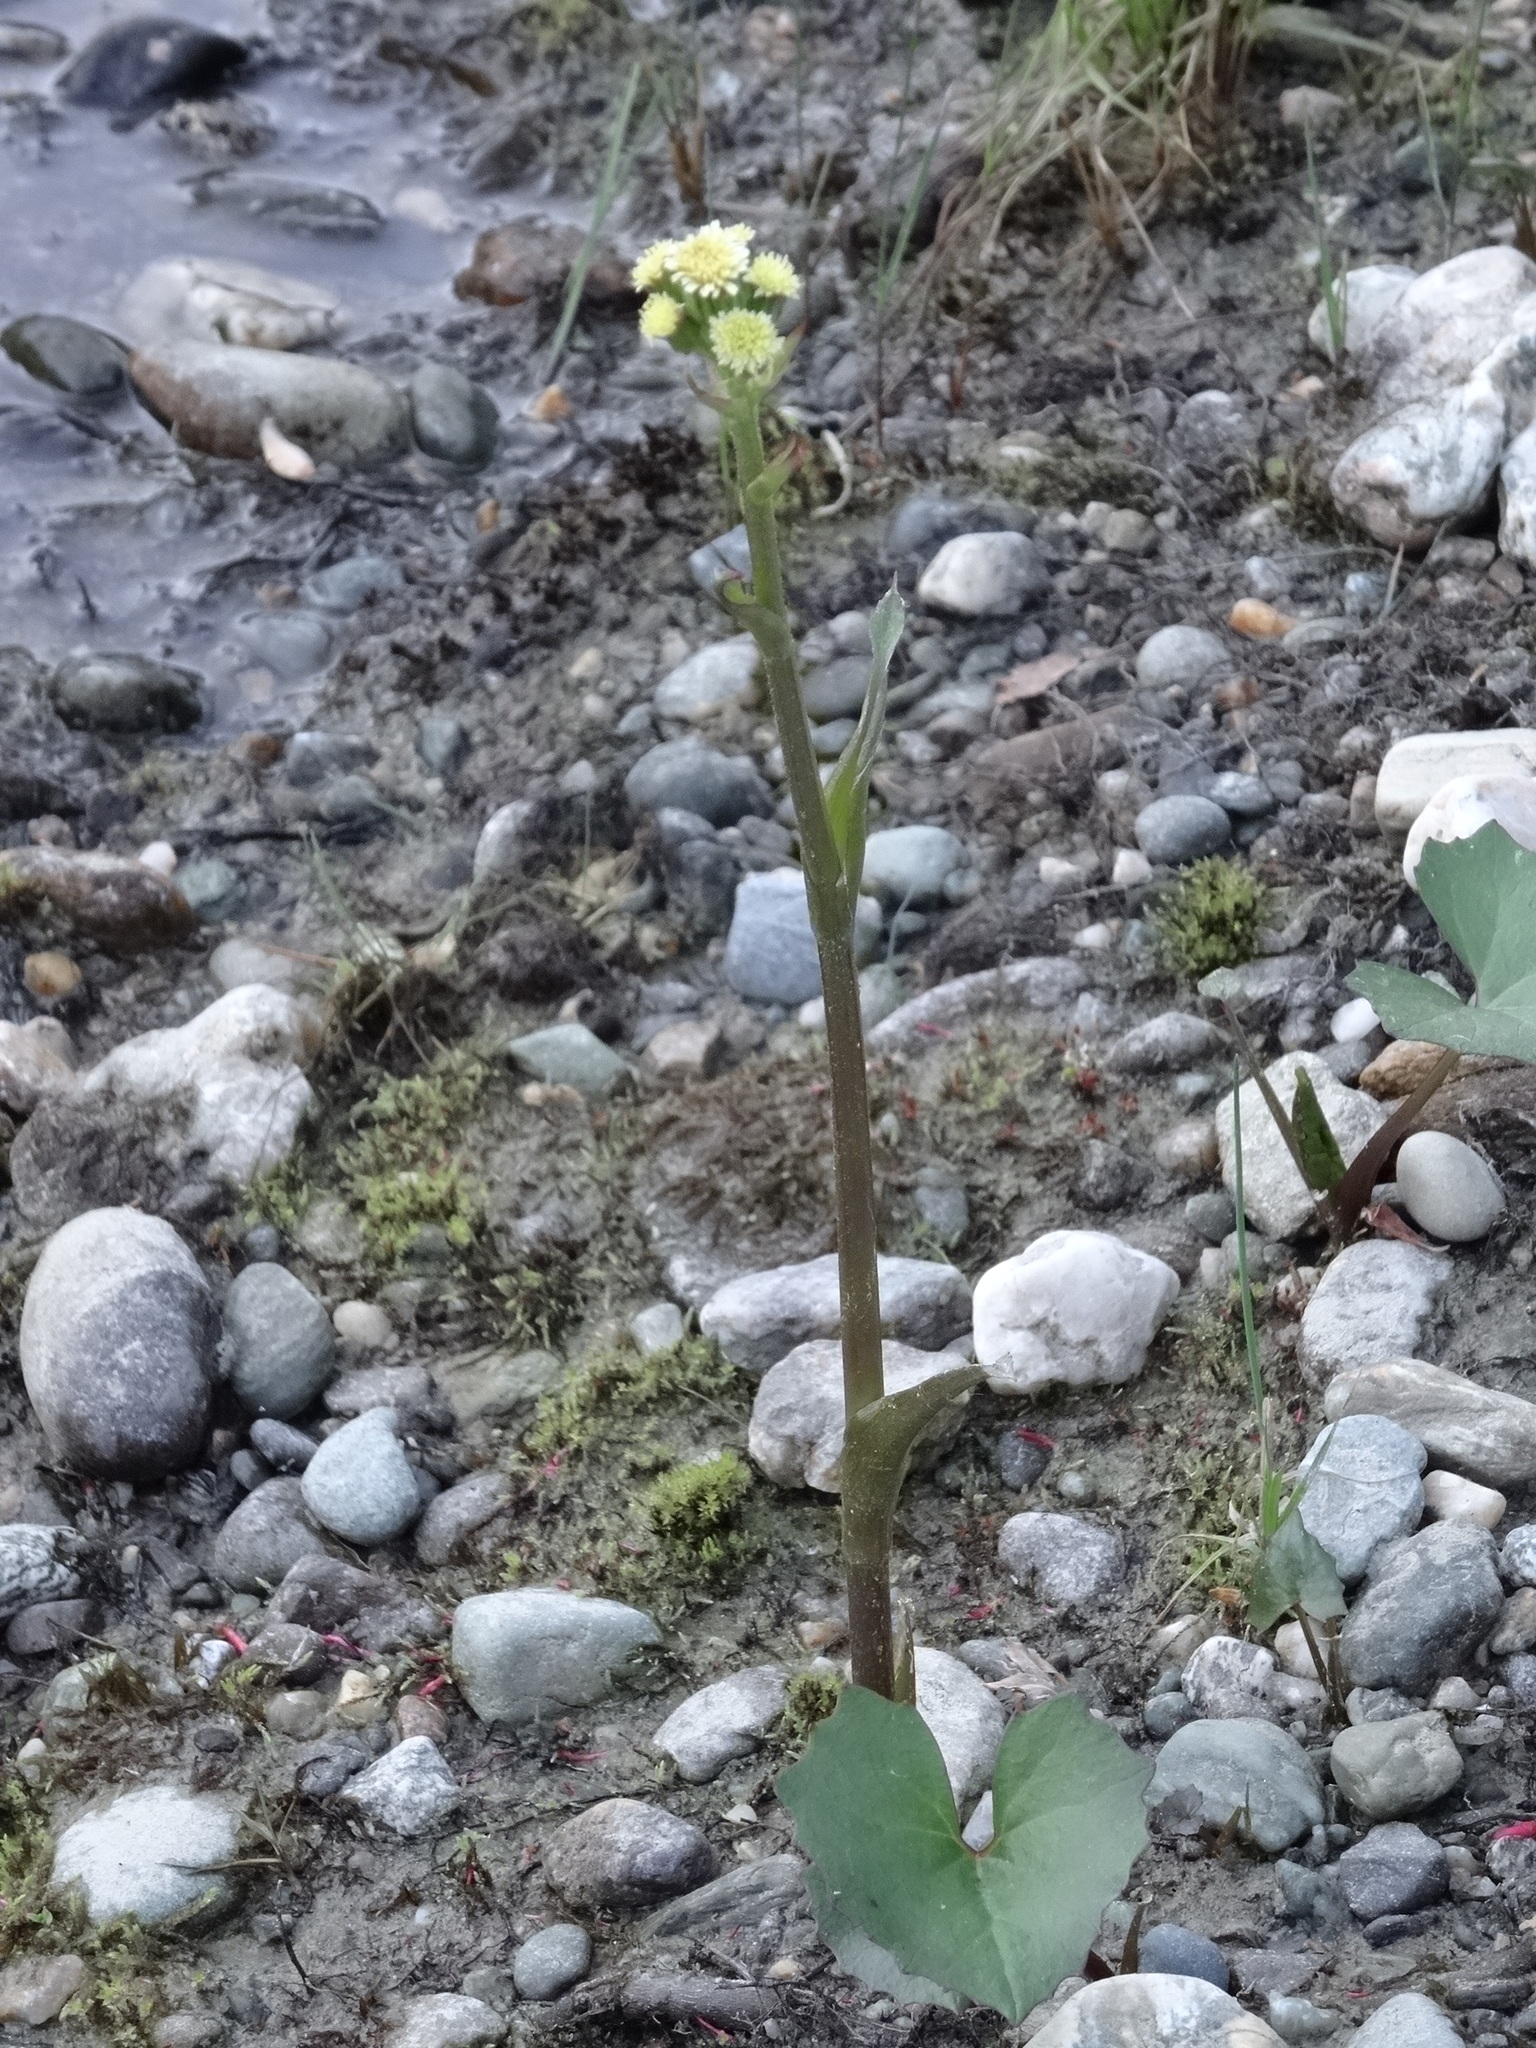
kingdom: Plantae
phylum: Tracheophyta
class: Magnoliopsida
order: Asterales
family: Asteraceae
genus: Petasites
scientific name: Petasites radiatus
